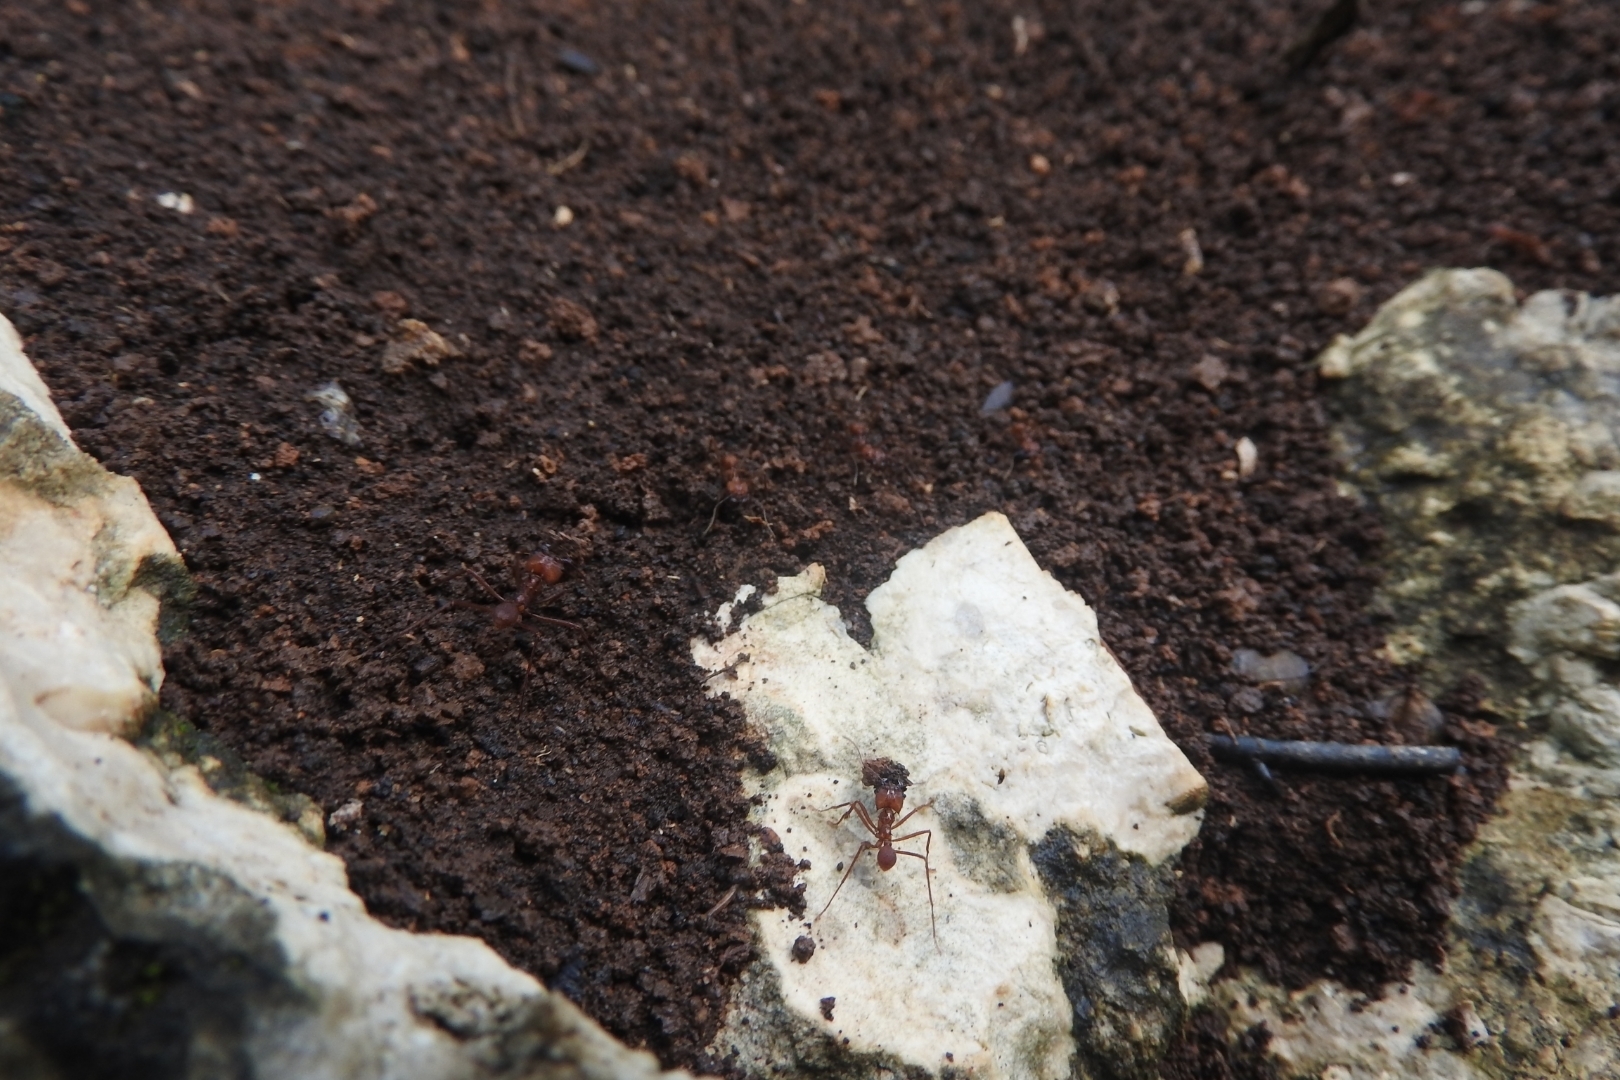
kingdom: Animalia
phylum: Arthropoda
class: Insecta
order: Hymenoptera
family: Formicidae
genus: Atta
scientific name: Atta mexicana
